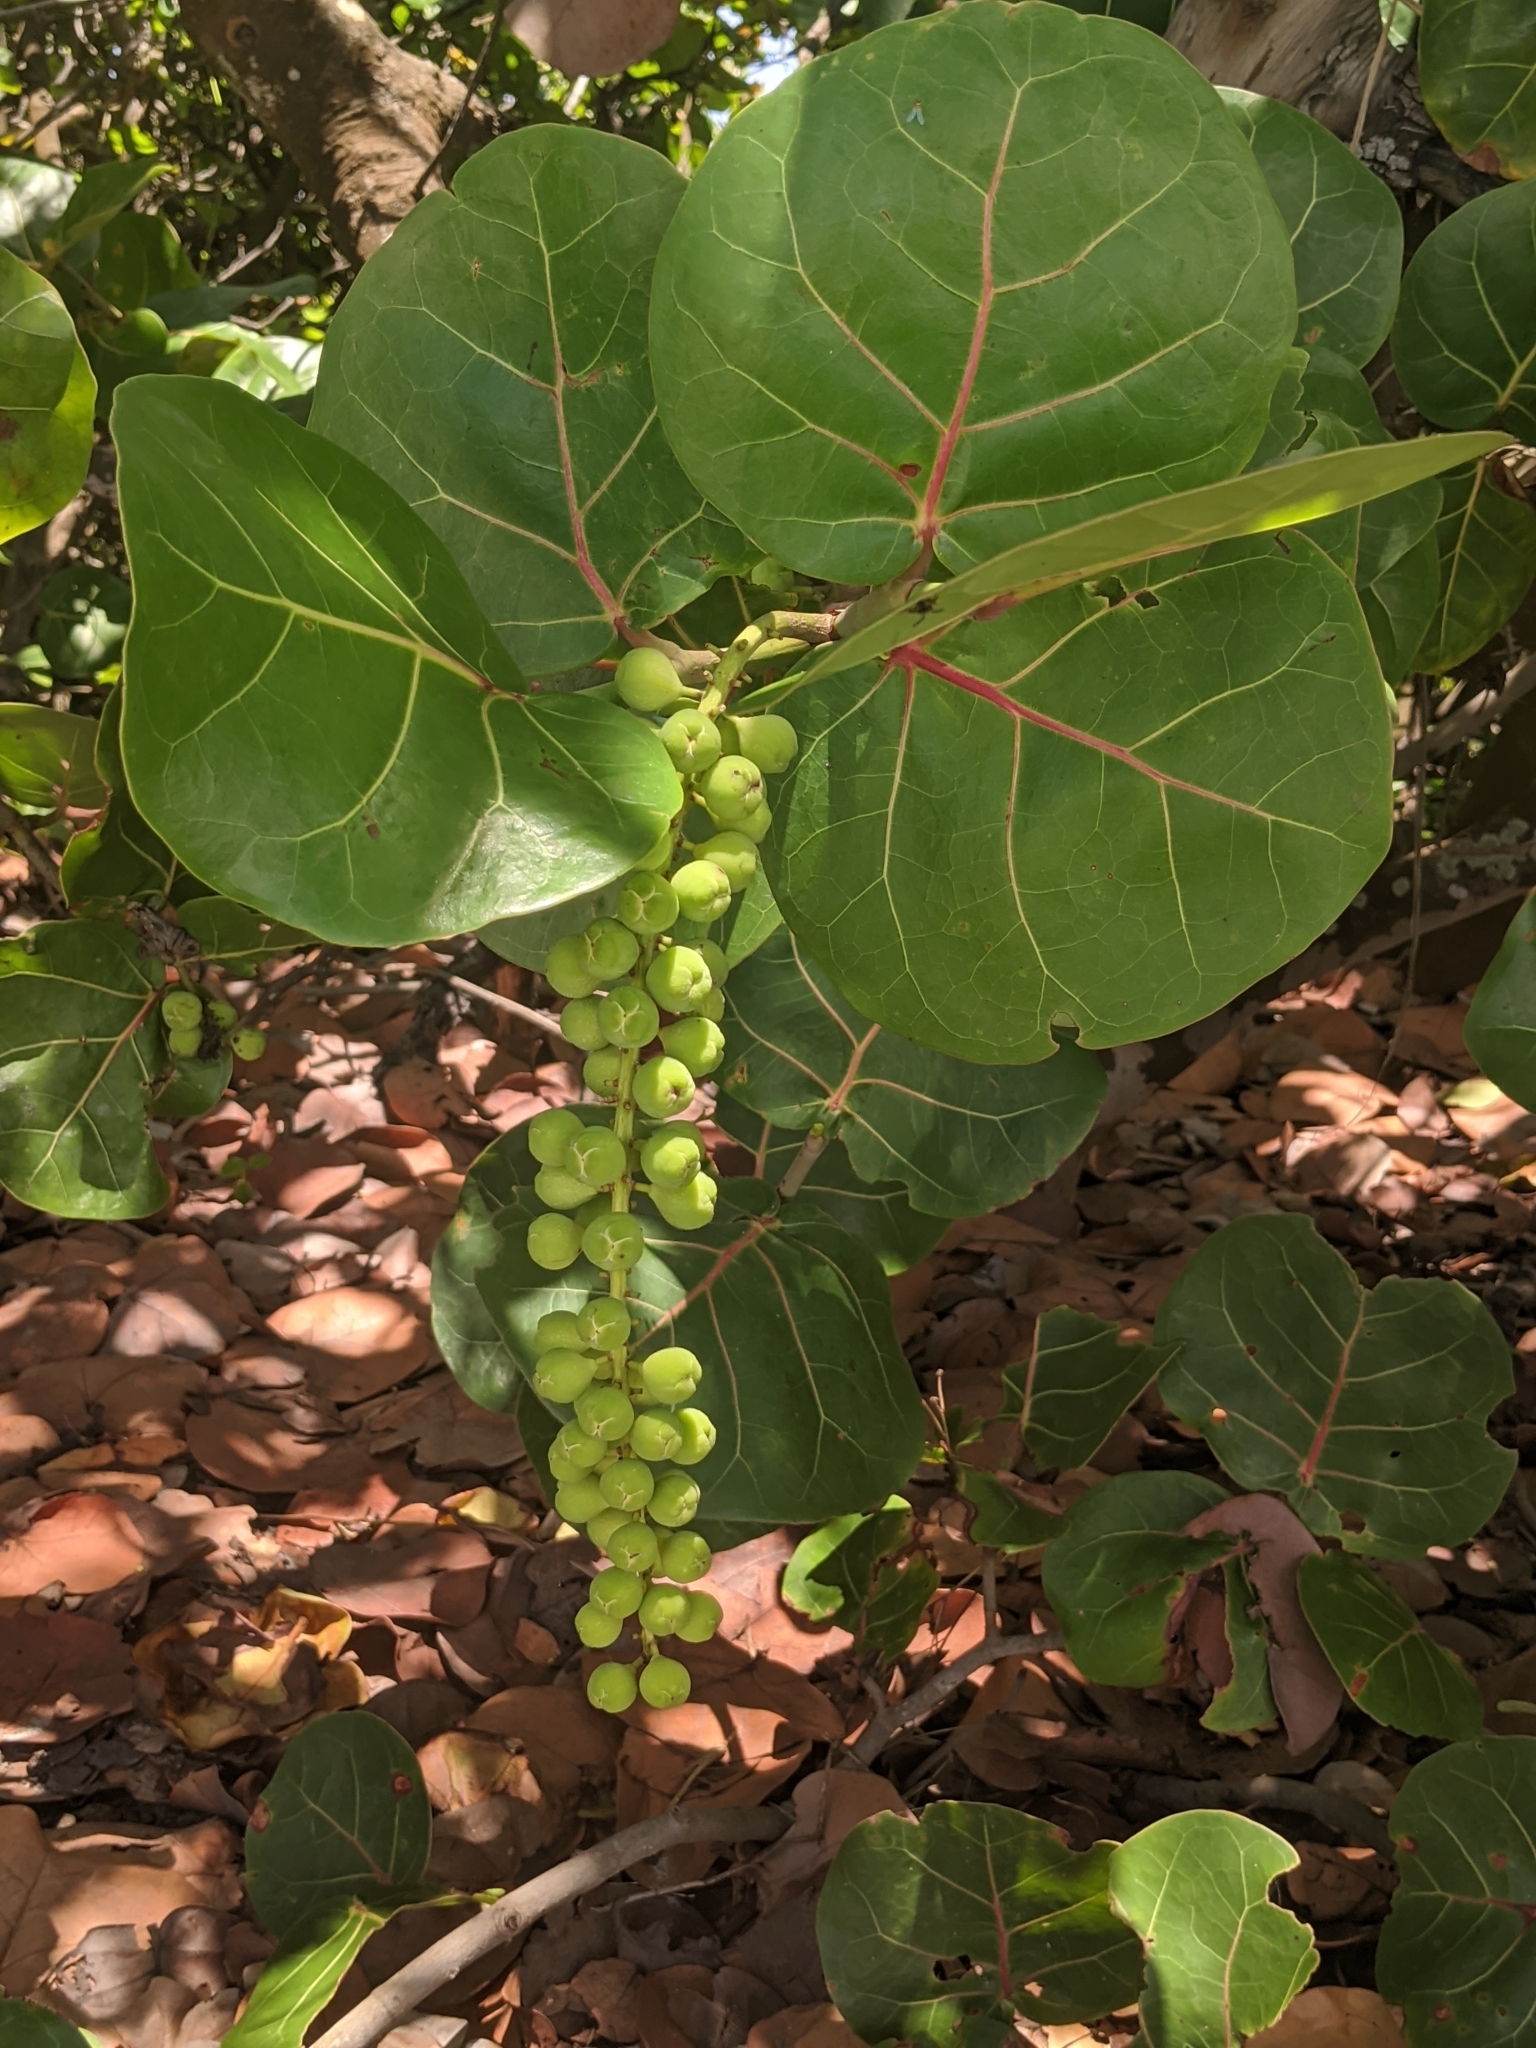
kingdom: Plantae
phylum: Tracheophyta
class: Magnoliopsida
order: Caryophyllales
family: Polygonaceae
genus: Coccoloba
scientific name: Coccoloba uvifera
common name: Seagrape
